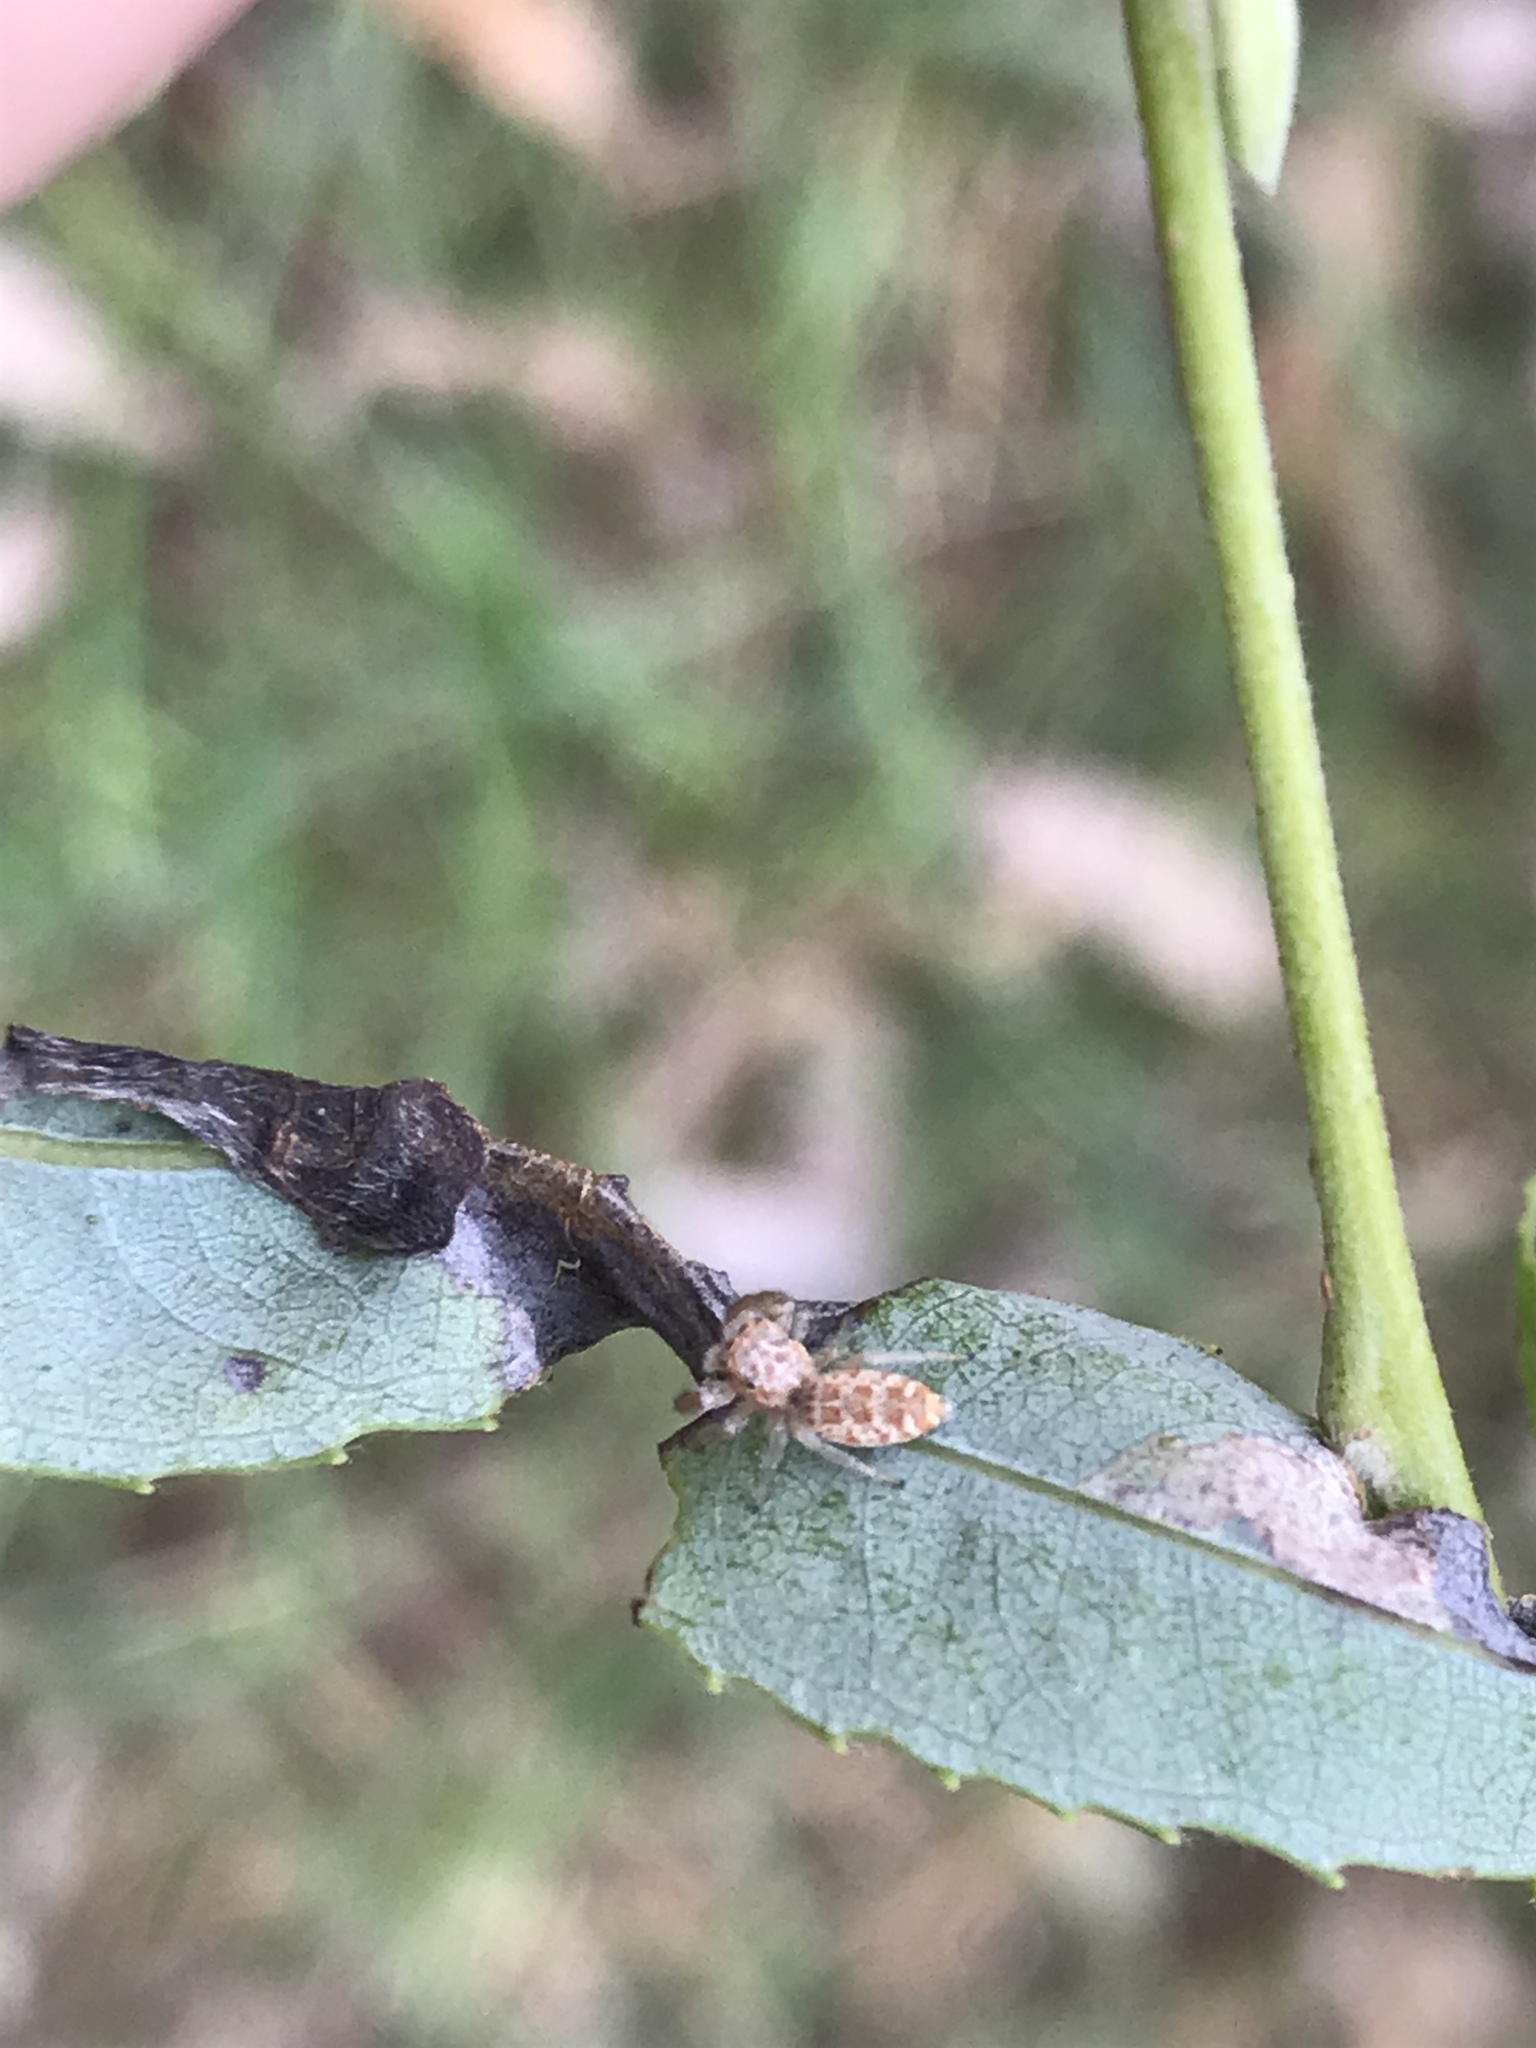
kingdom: Animalia
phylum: Arthropoda
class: Arachnida
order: Araneae
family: Salticidae
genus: Hentzia
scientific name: Hentzia mitrata
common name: White-jawed jumping spider
